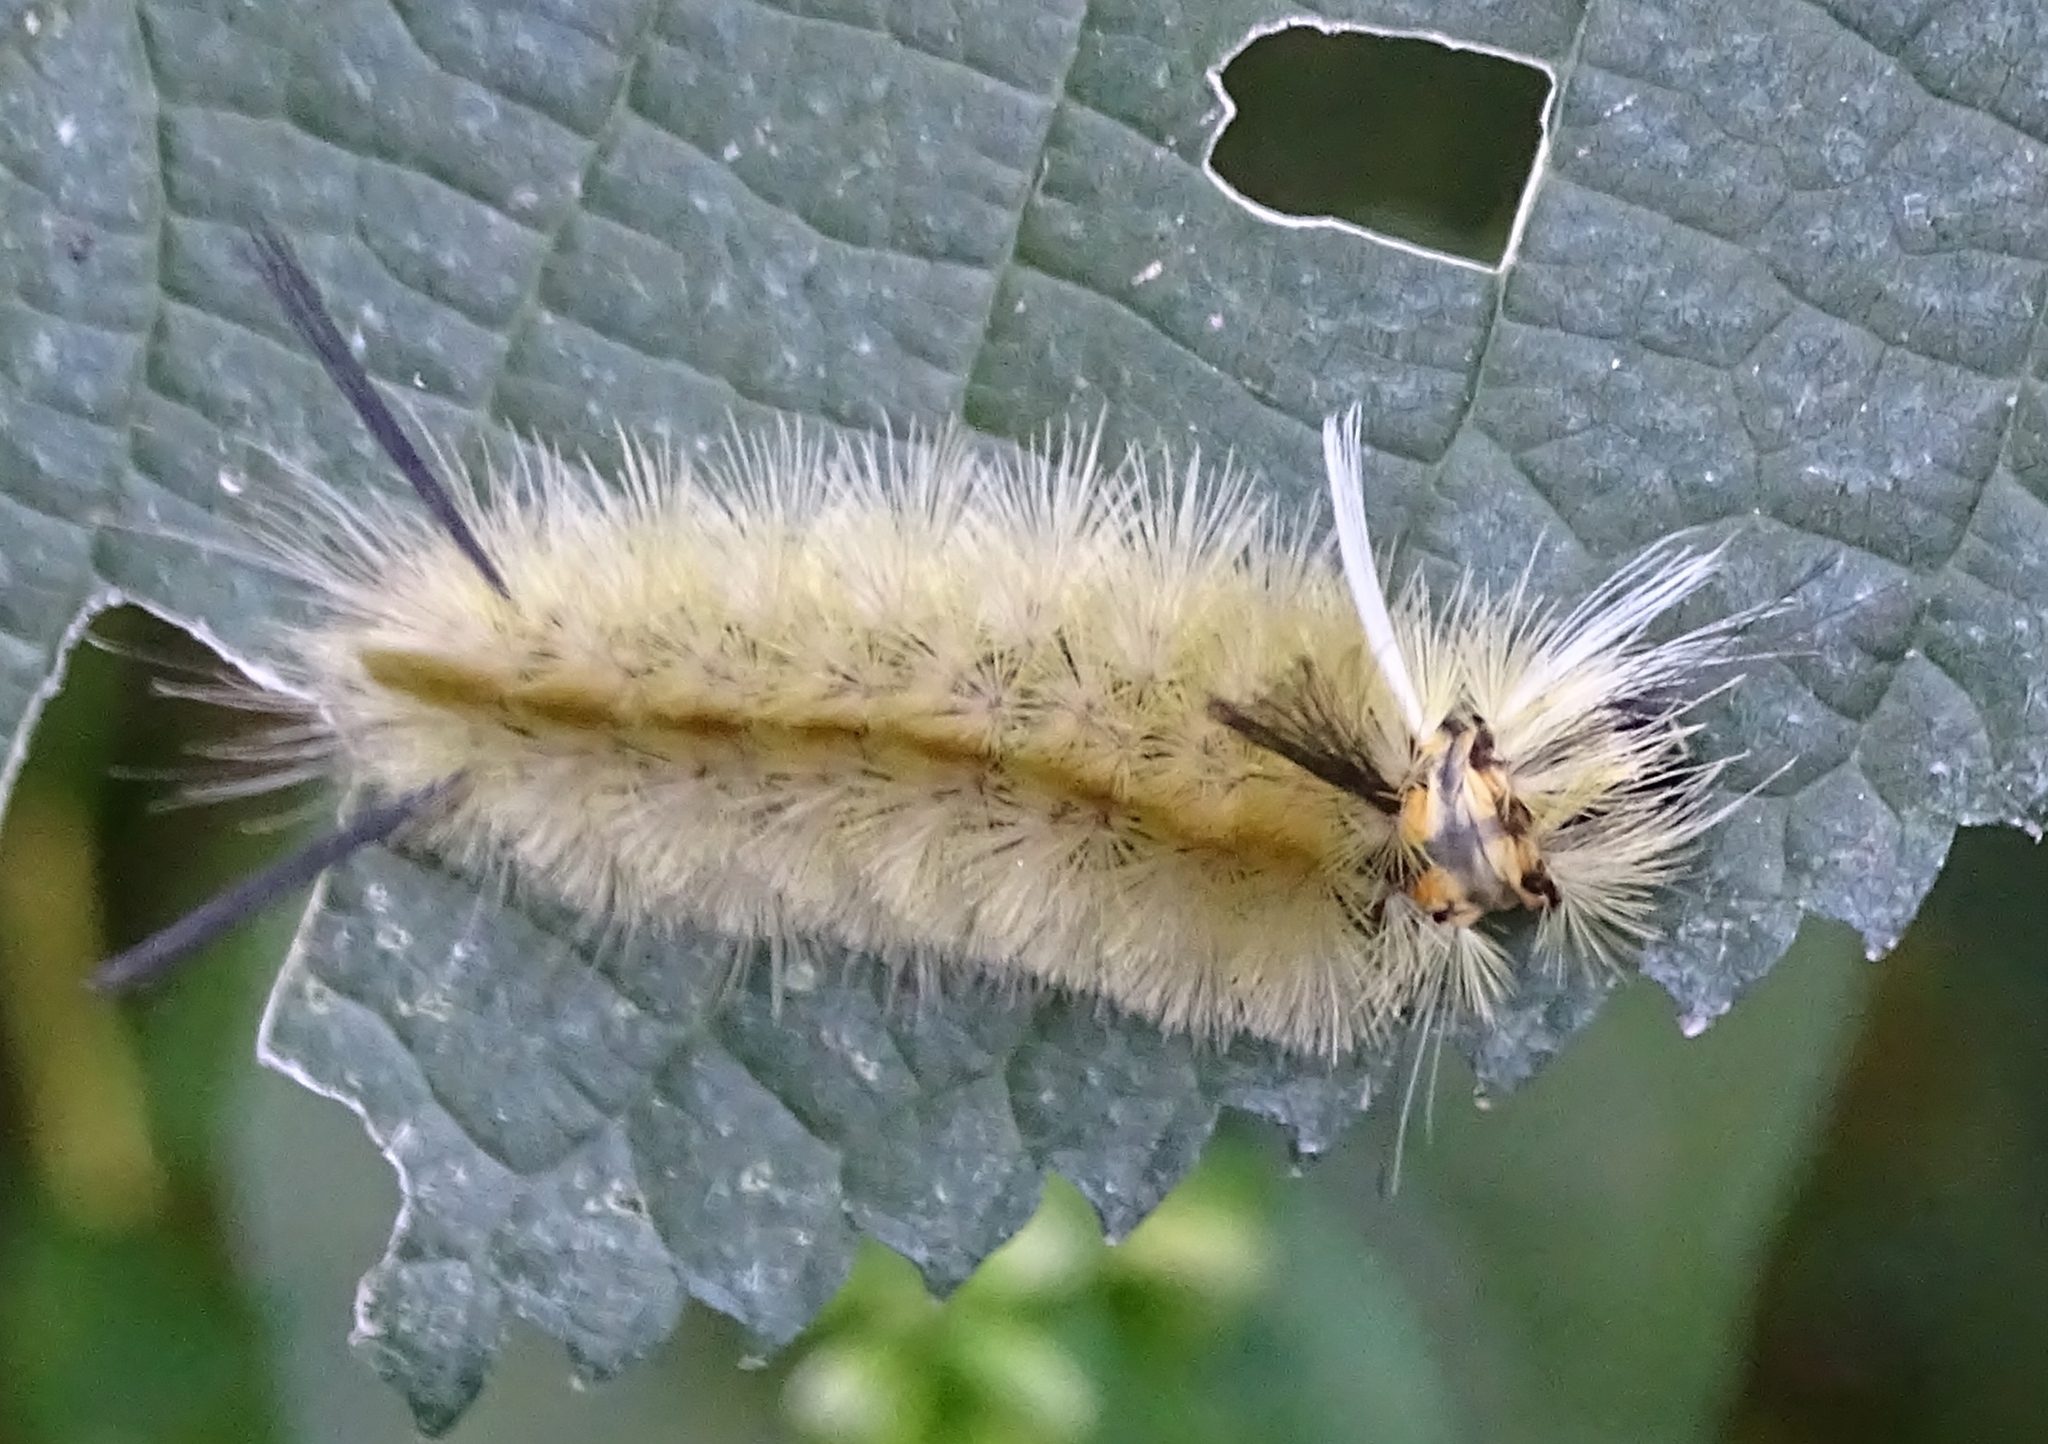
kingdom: Animalia
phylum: Arthropoda
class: Insecta
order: Lepidoptera
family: Erebidae
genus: Halysidota
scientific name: Halysidota tessellaris
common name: Banded tussock moth
